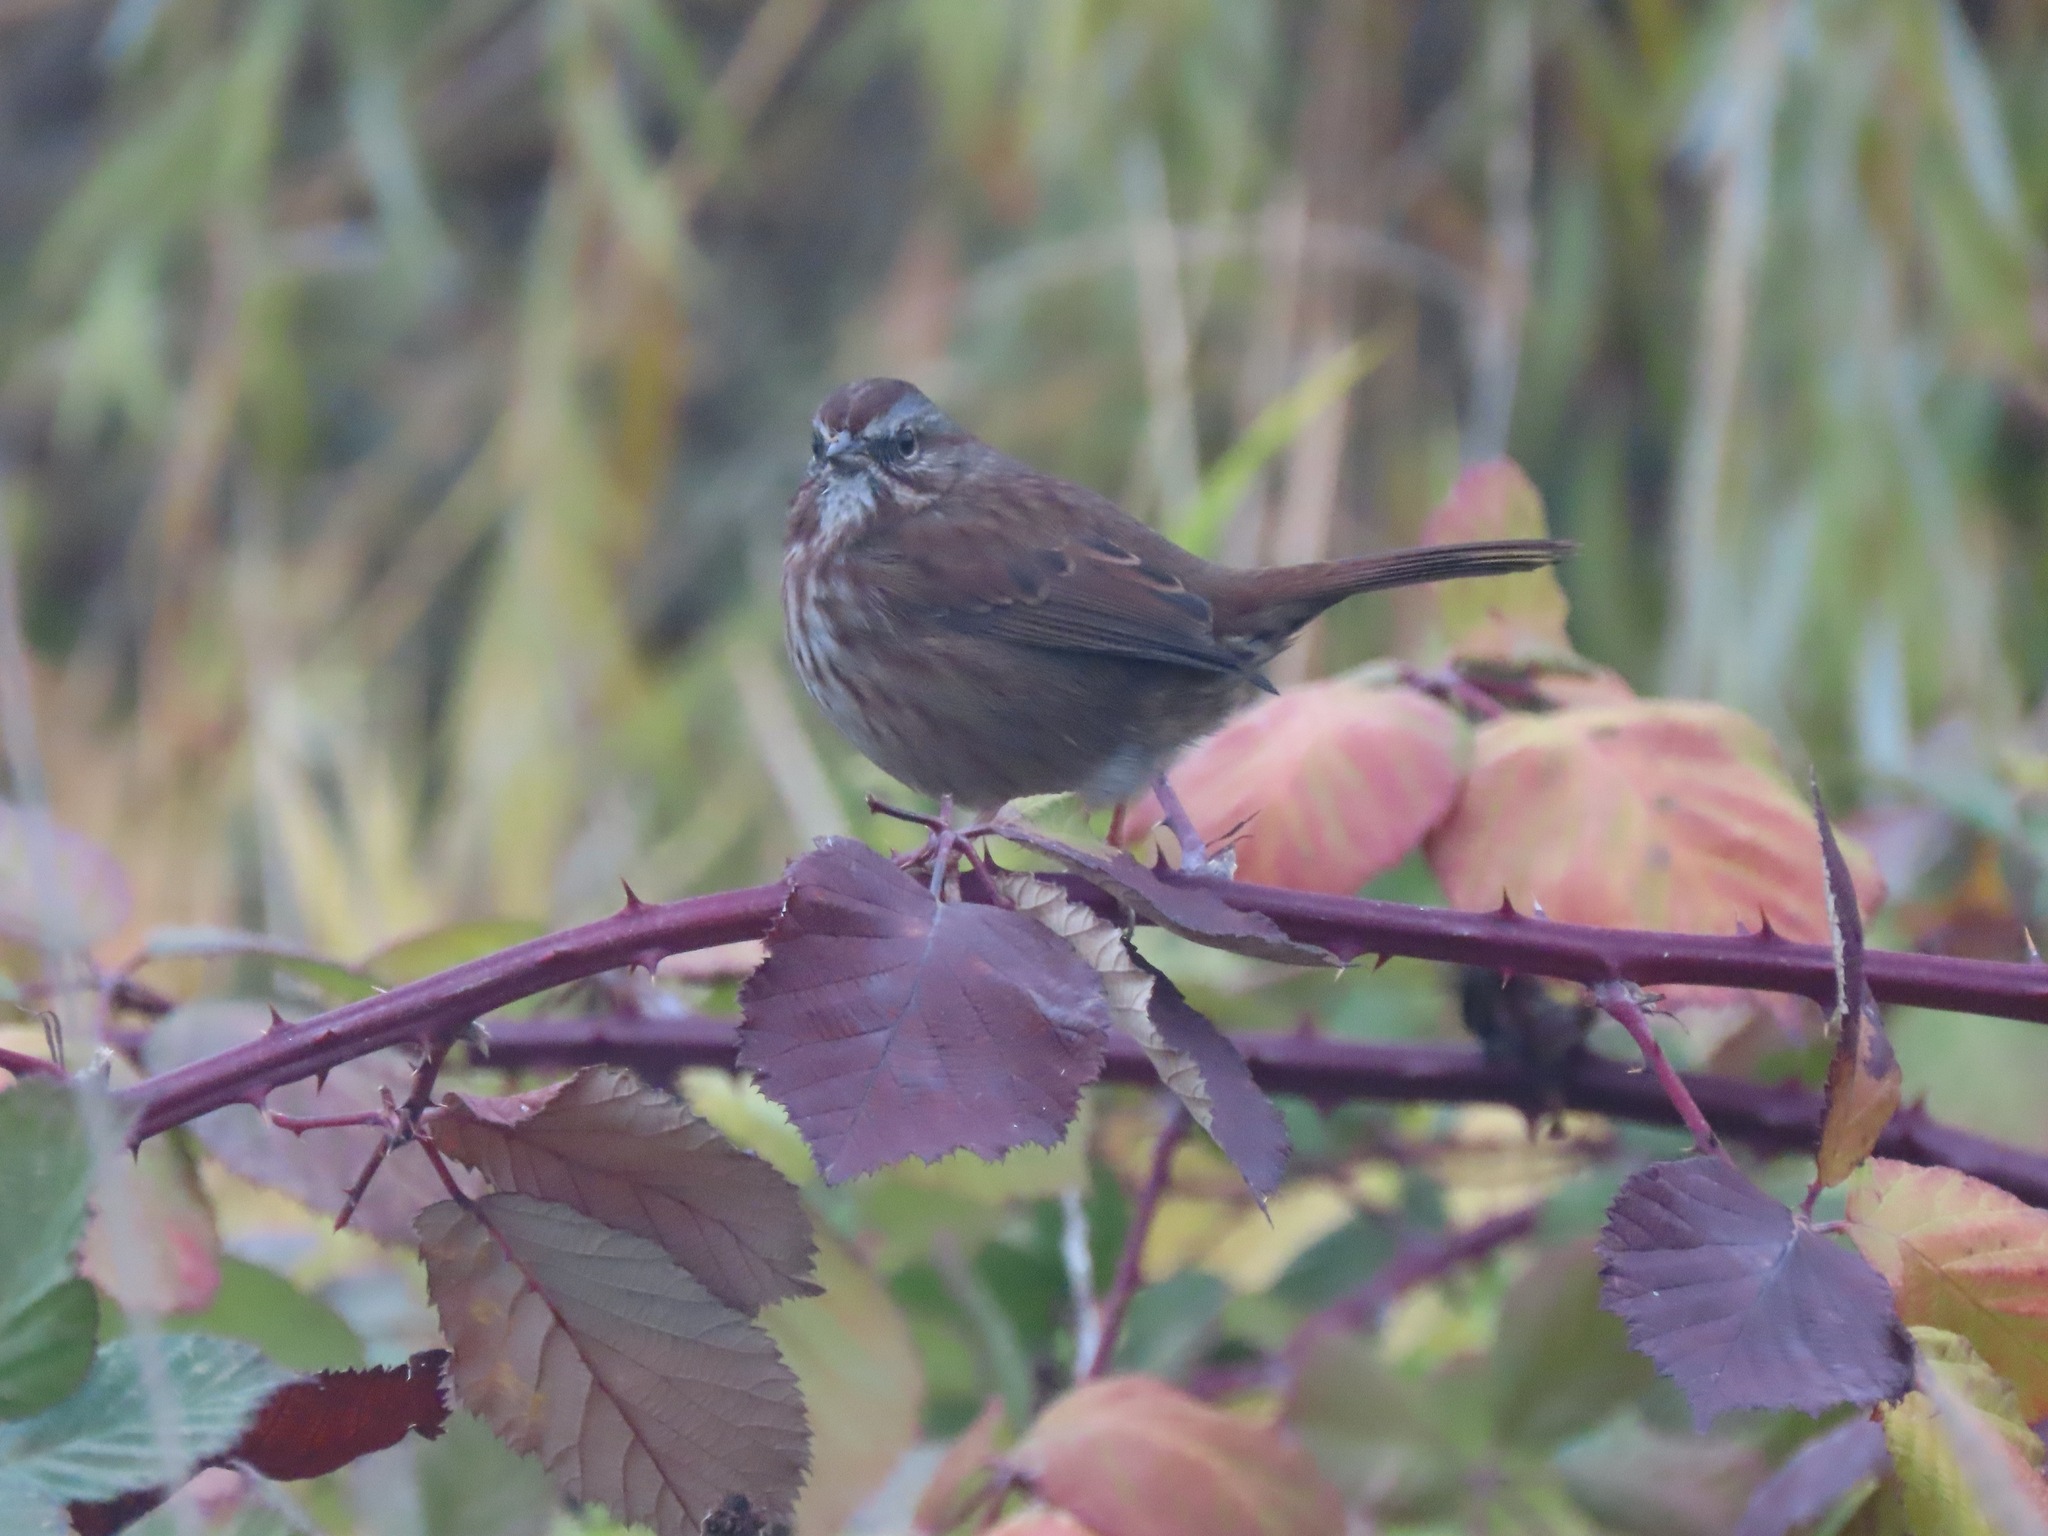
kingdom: Animalia
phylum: Chordata
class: Aves
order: Passeriformes
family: Passerellidae
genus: Melospiza
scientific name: Melospiza melodia
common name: Song sparrow
